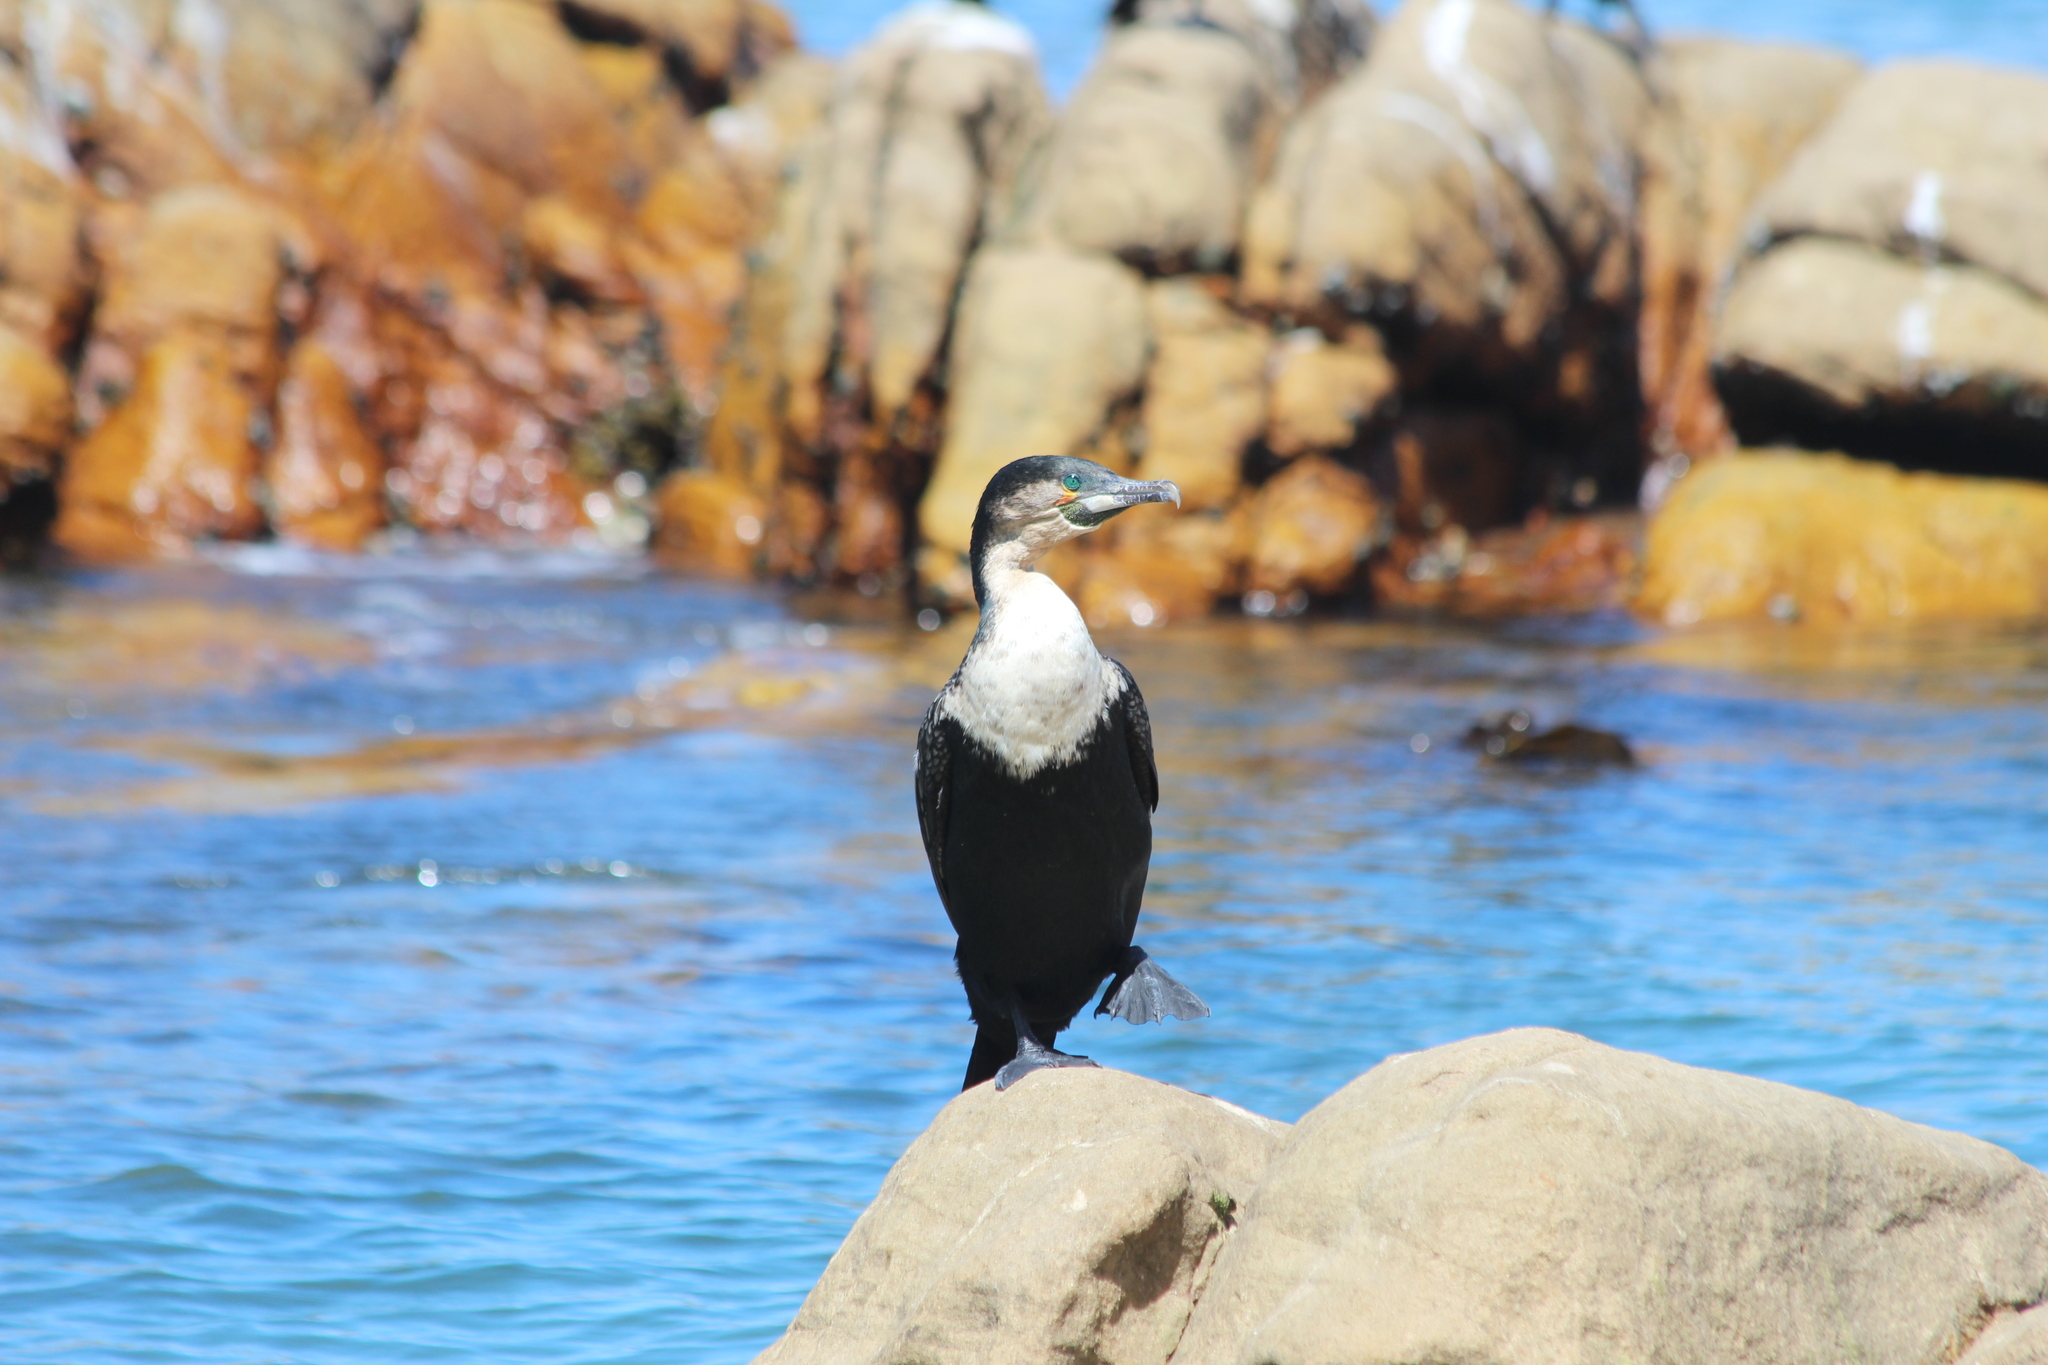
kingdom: Animalia
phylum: Chordata
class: Aves
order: Suliformes
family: Phalacrocoracidae
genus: Phalacrocorax
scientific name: Phalacrocorax carbo
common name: Great cormorant
